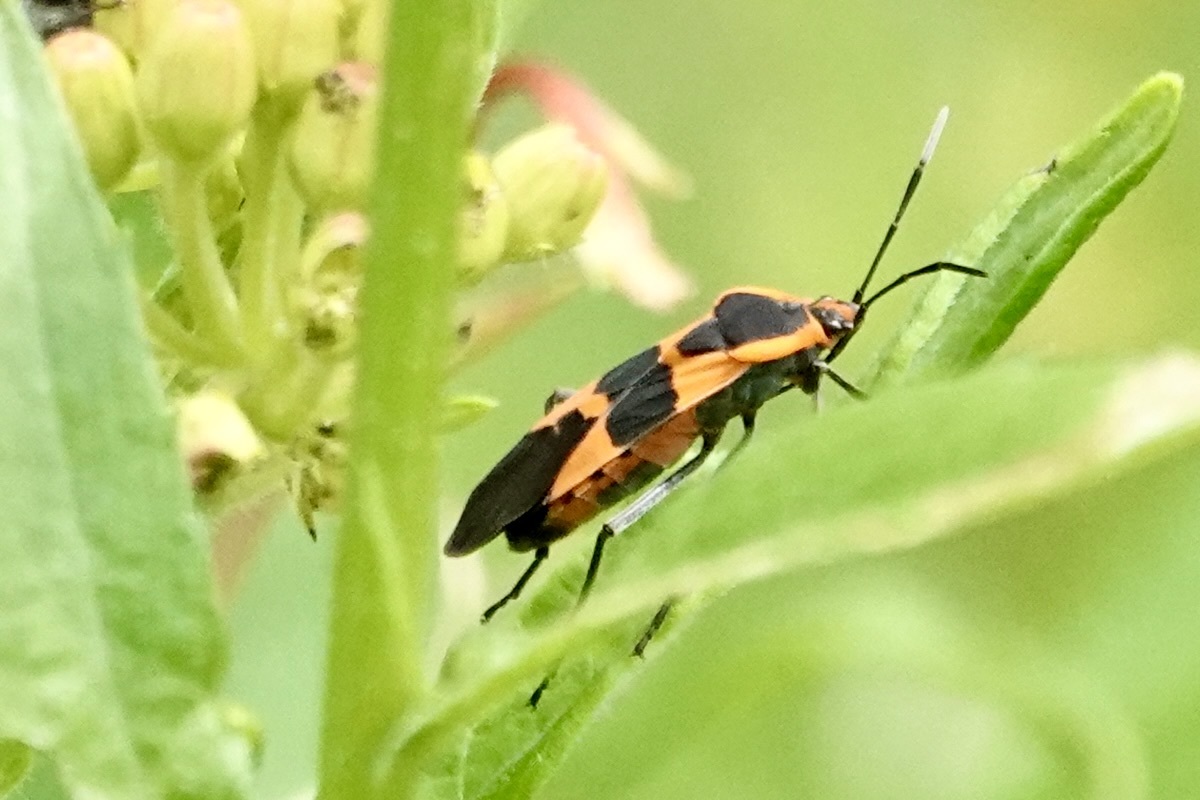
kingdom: Animalia
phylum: Arthropoda
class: Insecta
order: Hemiptera
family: Lygaeidae
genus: Oncopeltus
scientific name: Oncopeltus fasciatus
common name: Large milkweed bug
